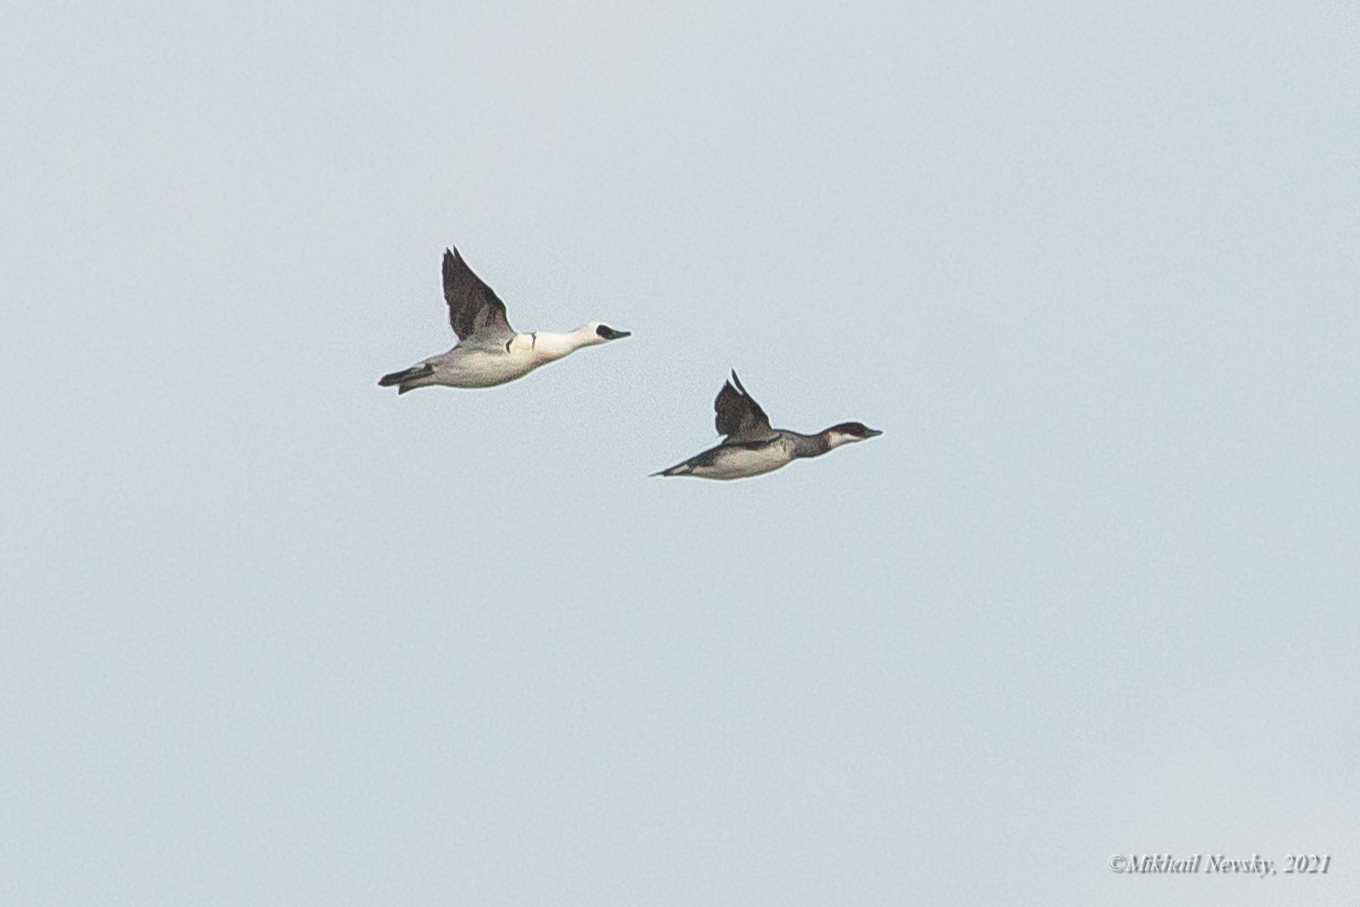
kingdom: Animalia
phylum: Chordata
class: Aves
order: Anseriformes
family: Anatidae
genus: Mergellus
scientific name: Mergellus albellus
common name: Smew
